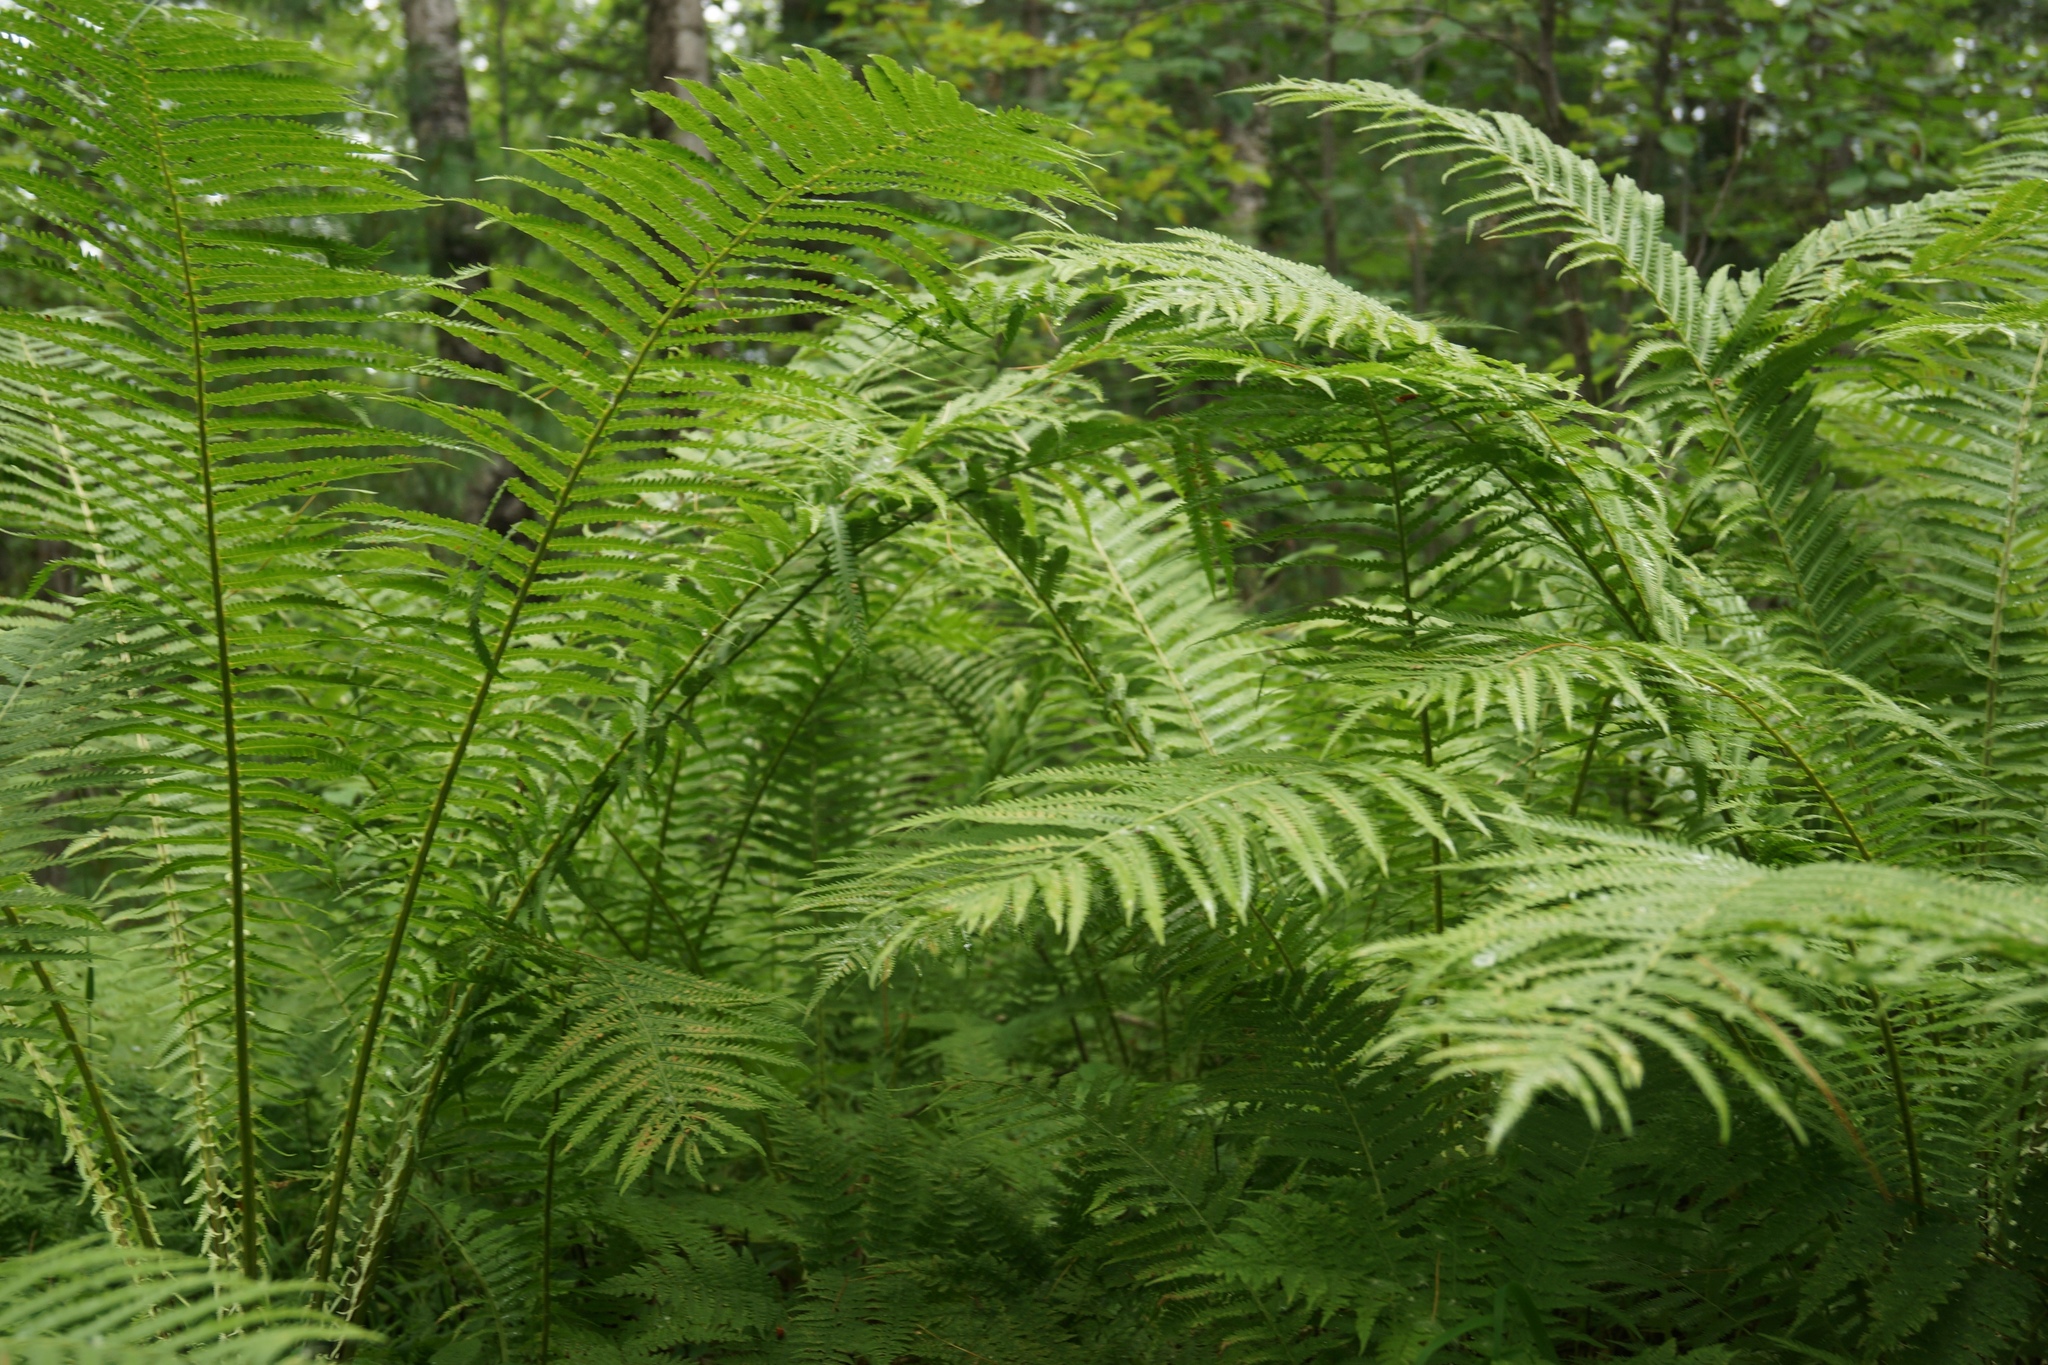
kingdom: Plantae
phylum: Tracheophyta
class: Polypodiopsida
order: Polypodiales
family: Onocleaceae
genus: Matteuccia
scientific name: Matteuccia struthiopteris
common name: Ostrich fern
